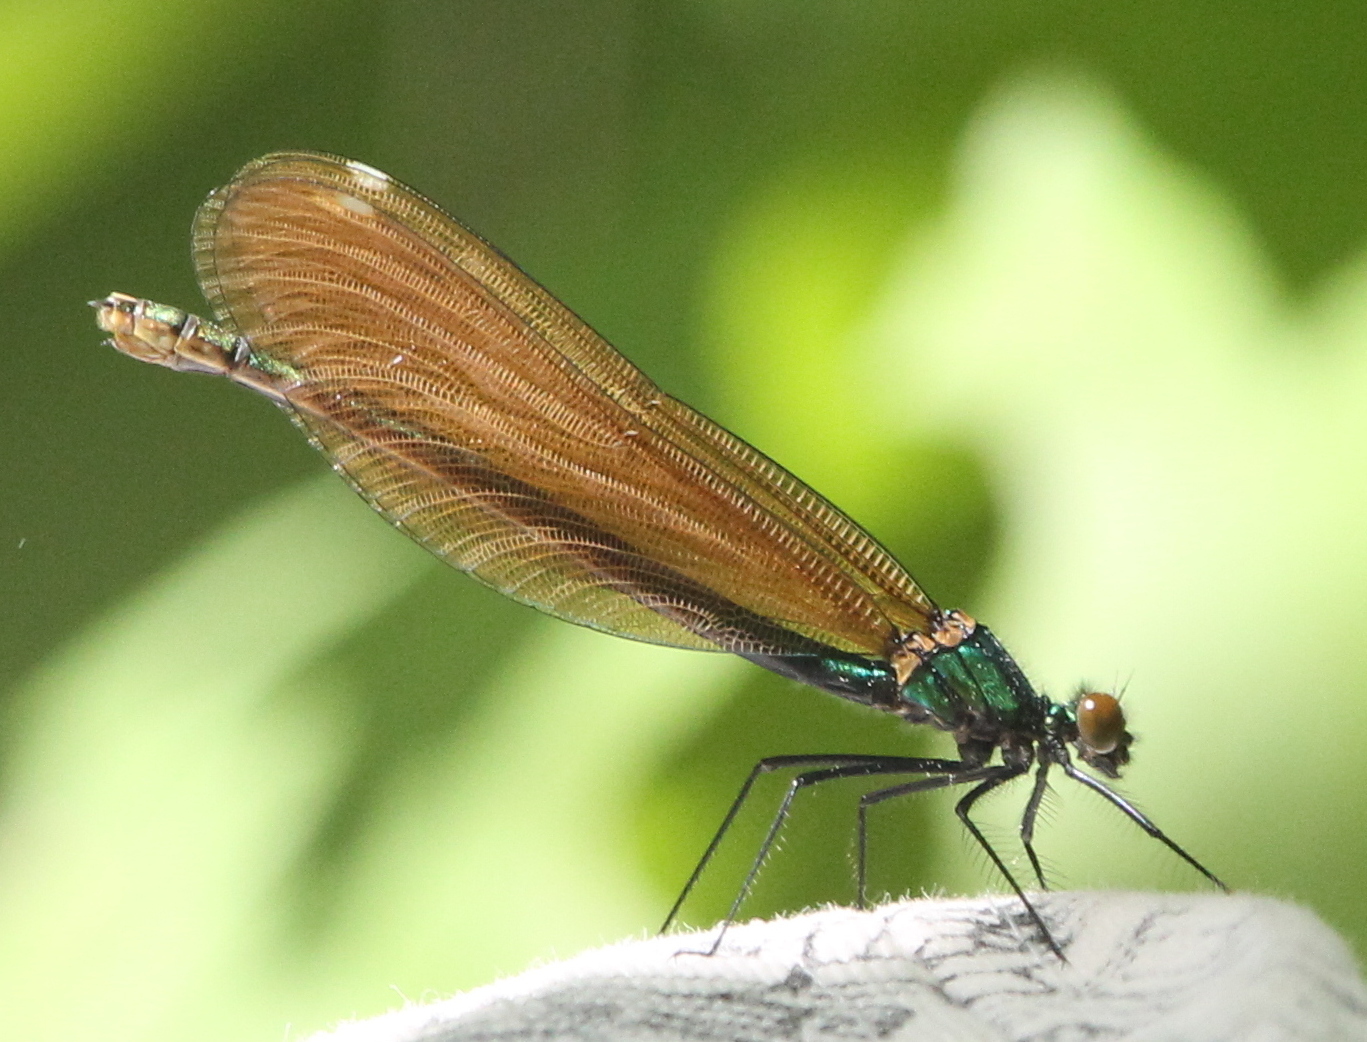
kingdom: Animalia
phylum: Arthropoda
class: Insecta
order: Odonata
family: Calopterygidae
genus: Calopteryx
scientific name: Calopteryx virgo
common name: Beautiful demoiselle
